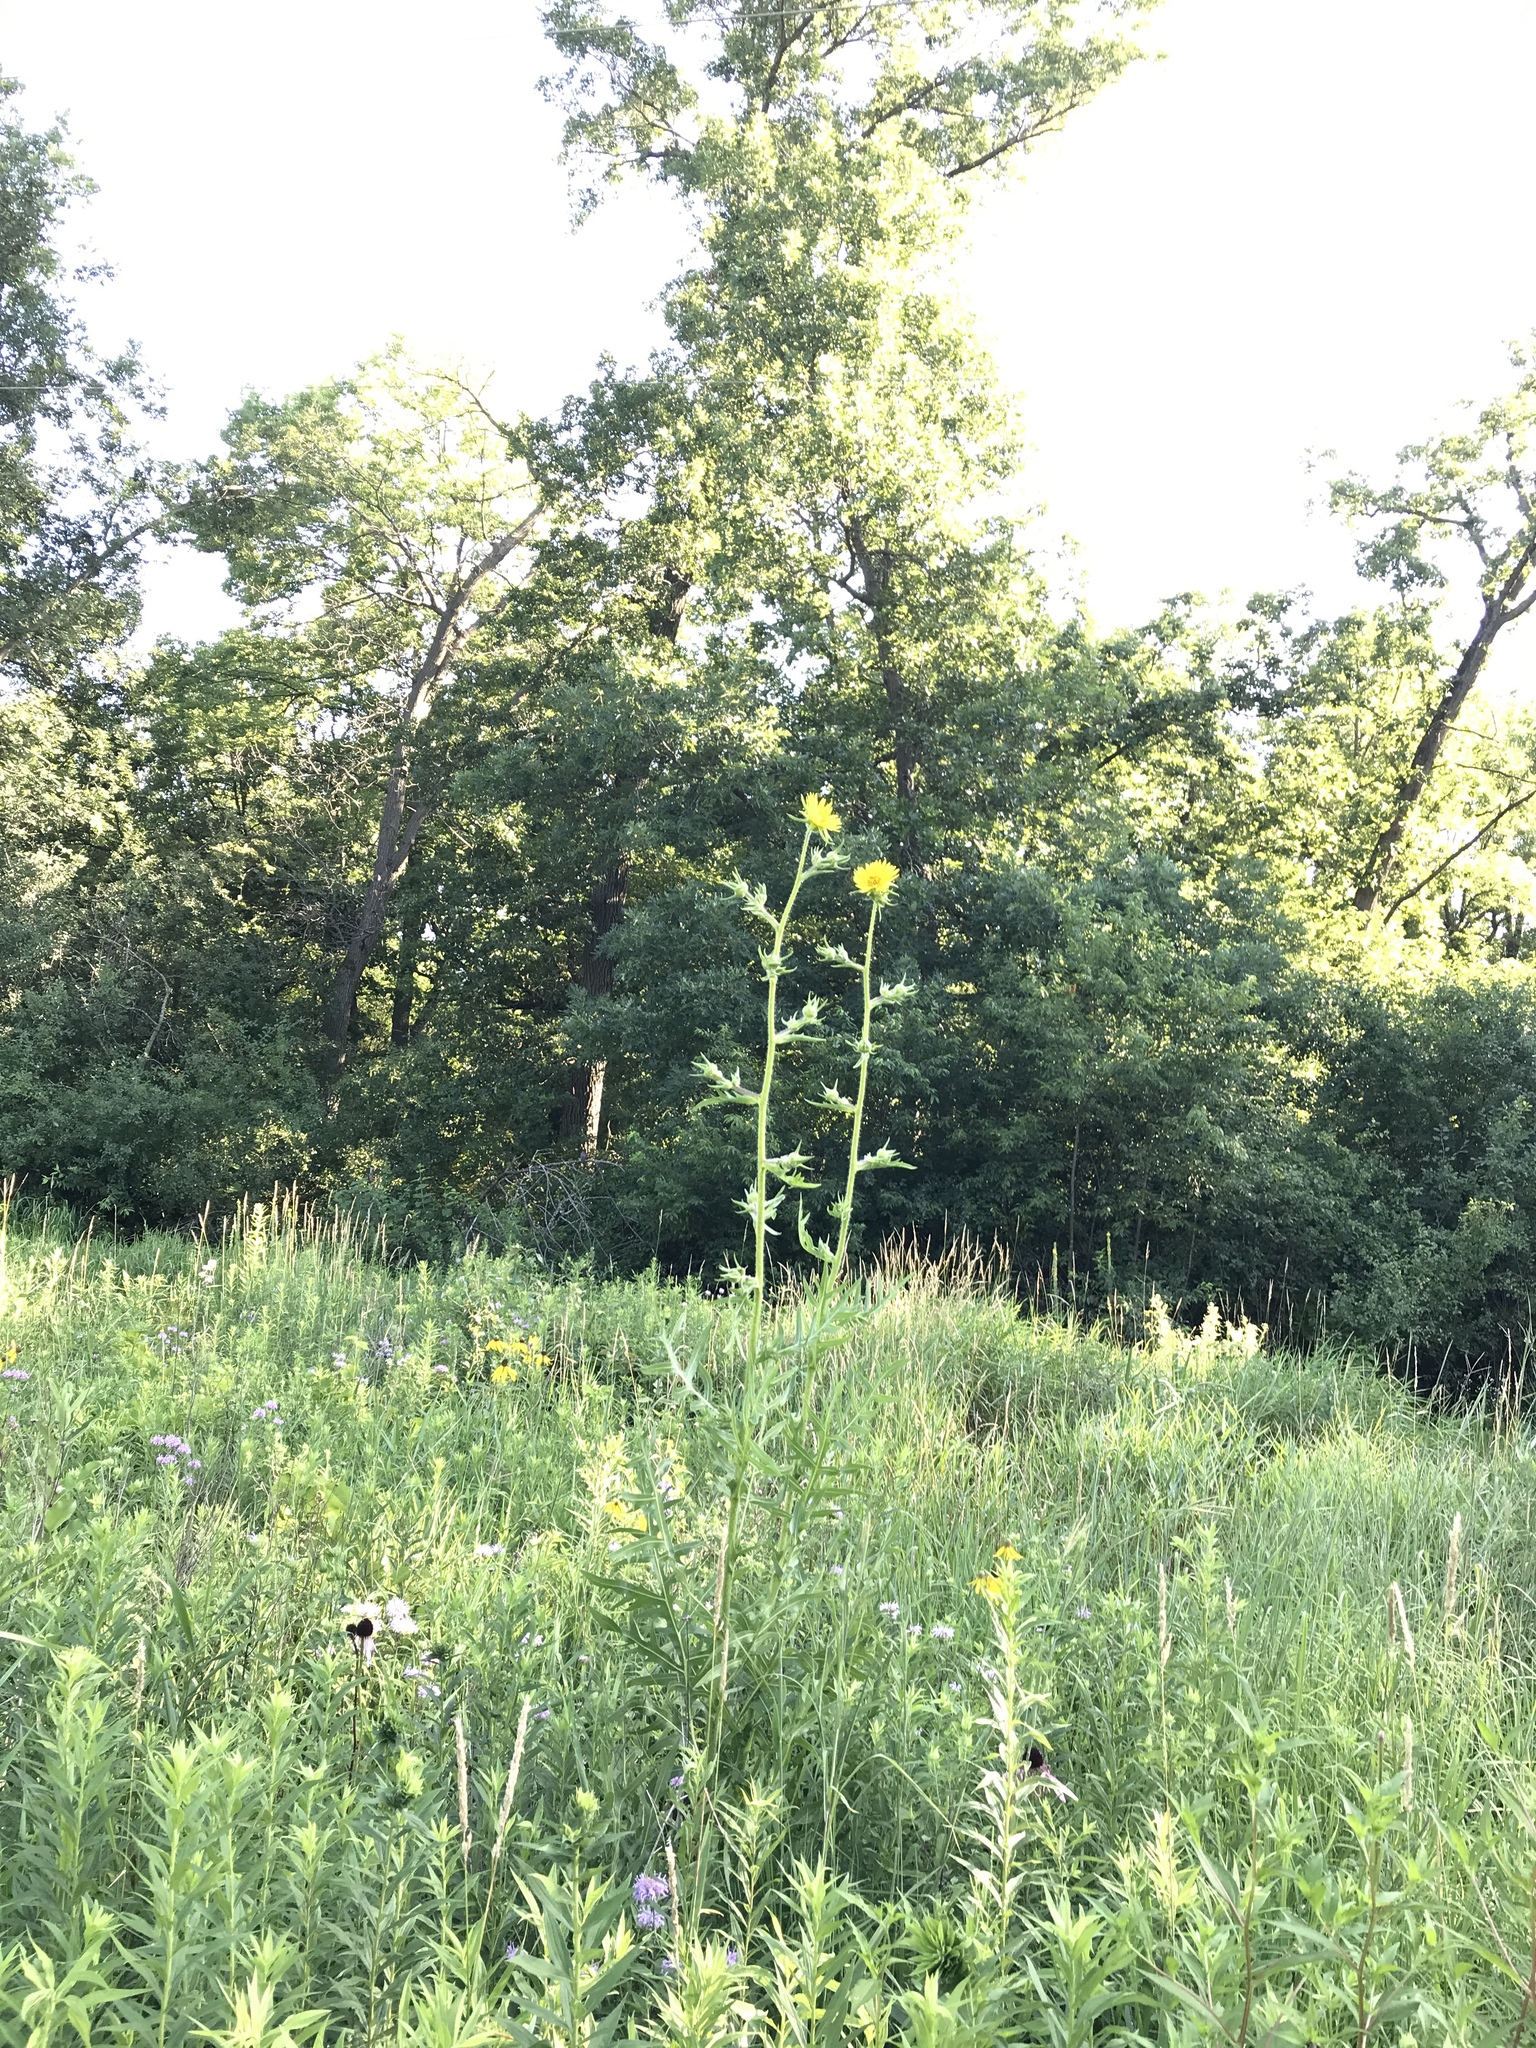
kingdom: Plantae
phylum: Tracheophyta
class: Magnoliopsida
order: Asterales
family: Asteraceae
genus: Silphium
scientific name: Silphium laciniatum
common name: Polarplant
